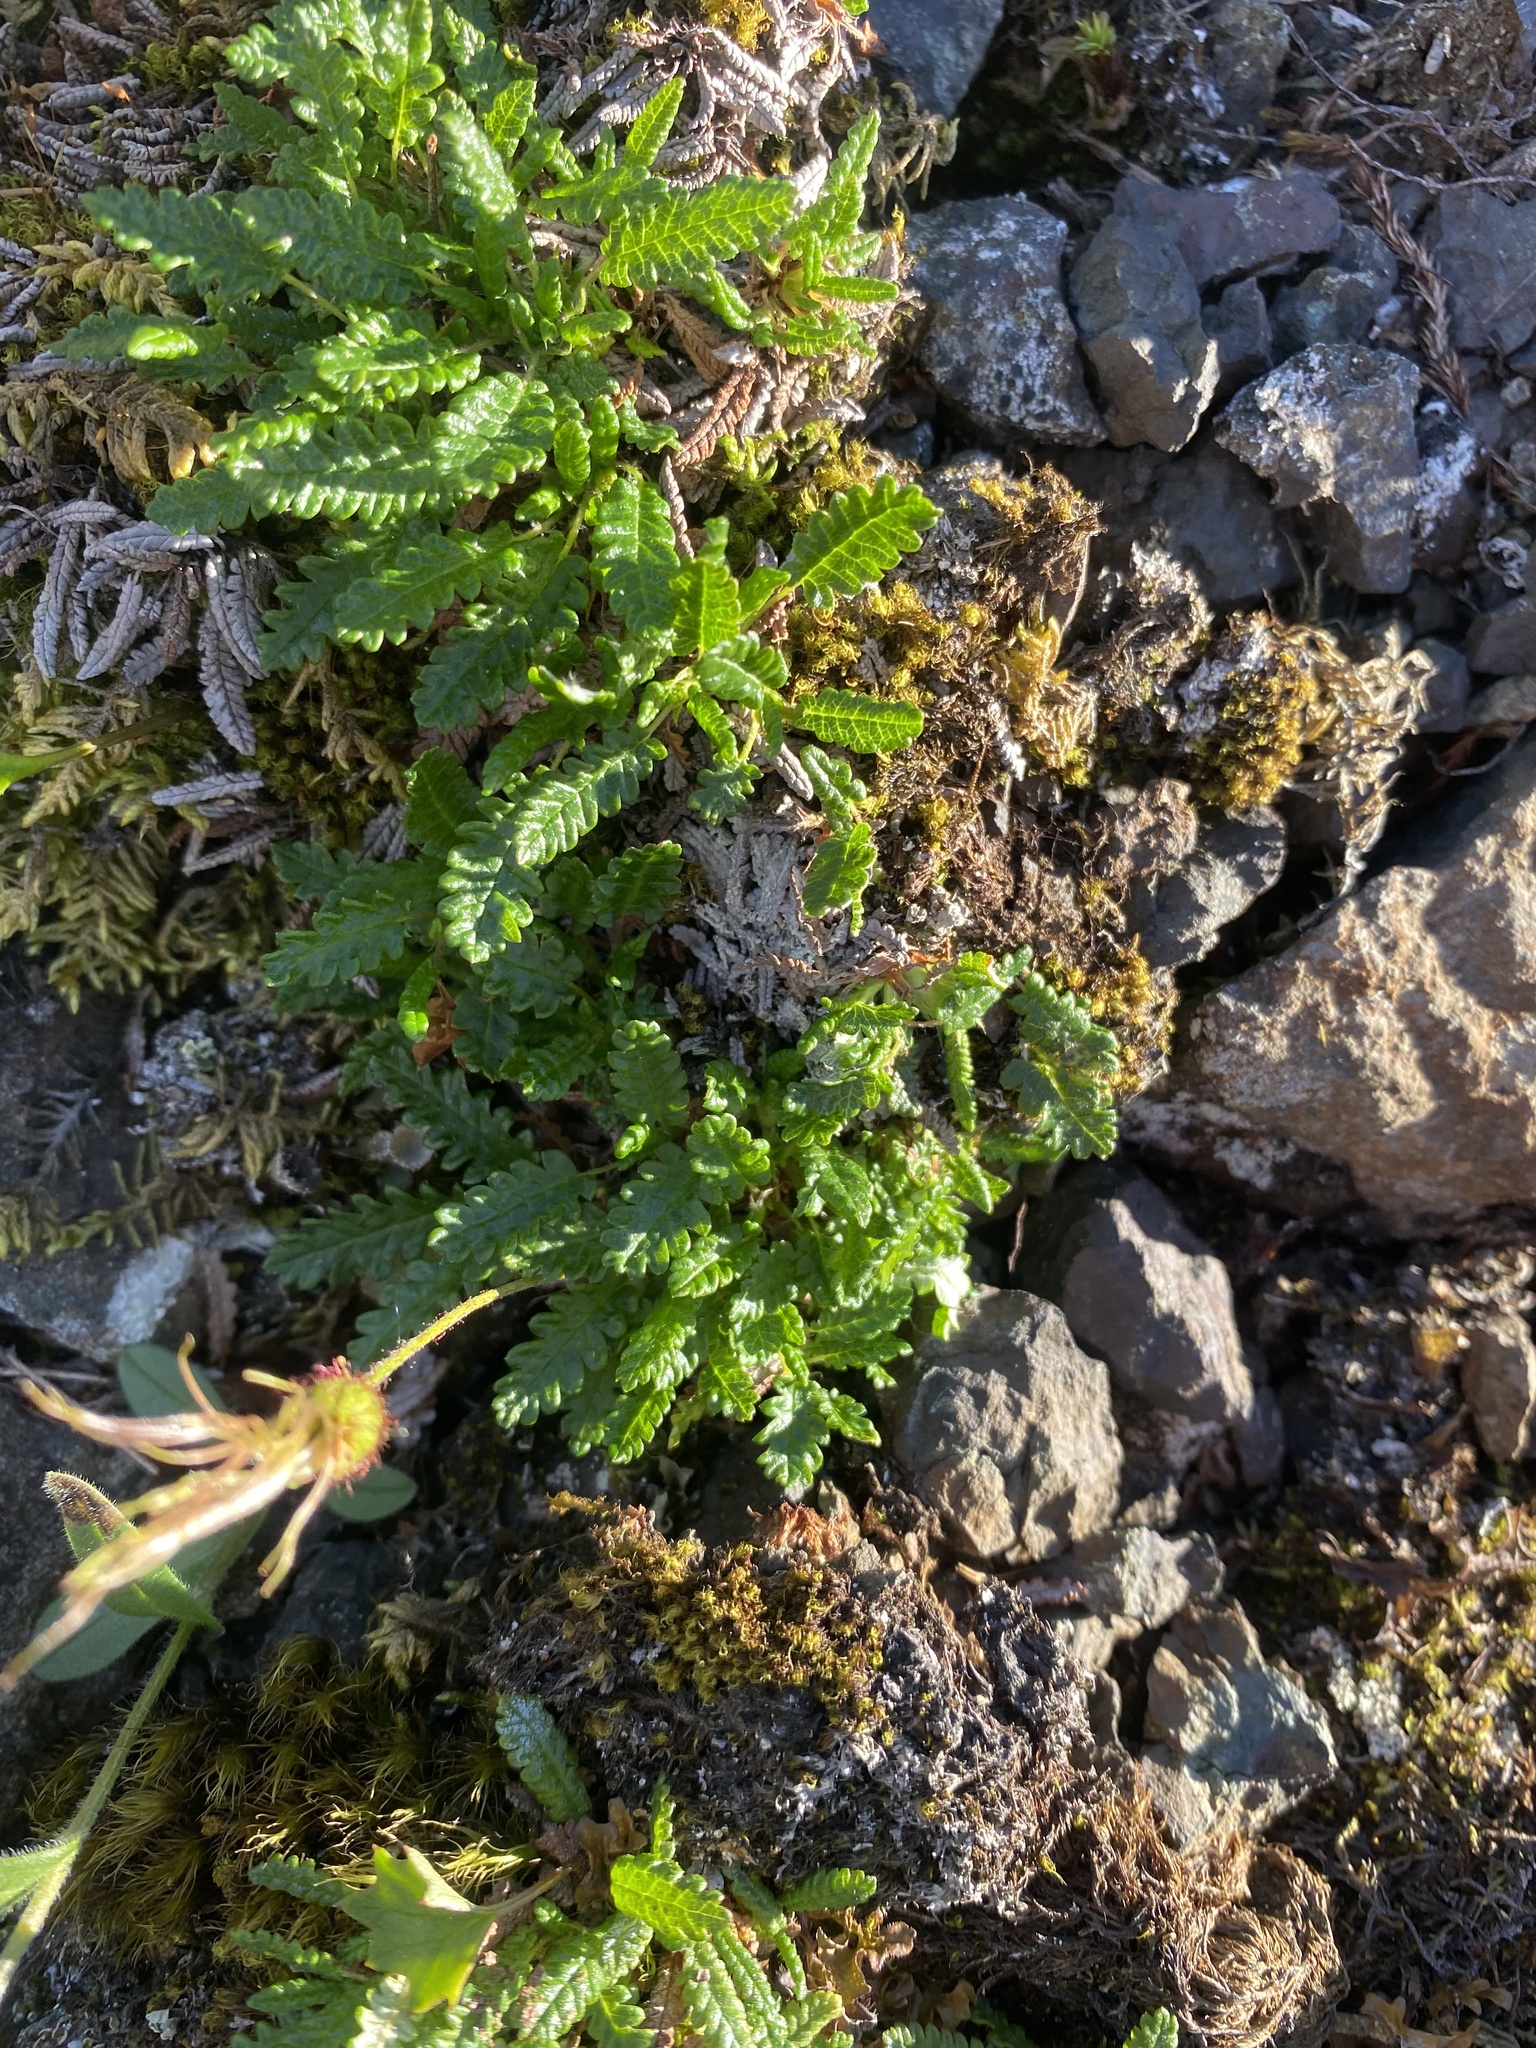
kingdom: Plantae
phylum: Tracheophyta
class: Magnoliopsida
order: Rosales
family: Rosaceae
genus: Dryas
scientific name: Dryas octopetala
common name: Eight-petal mountain-avens
